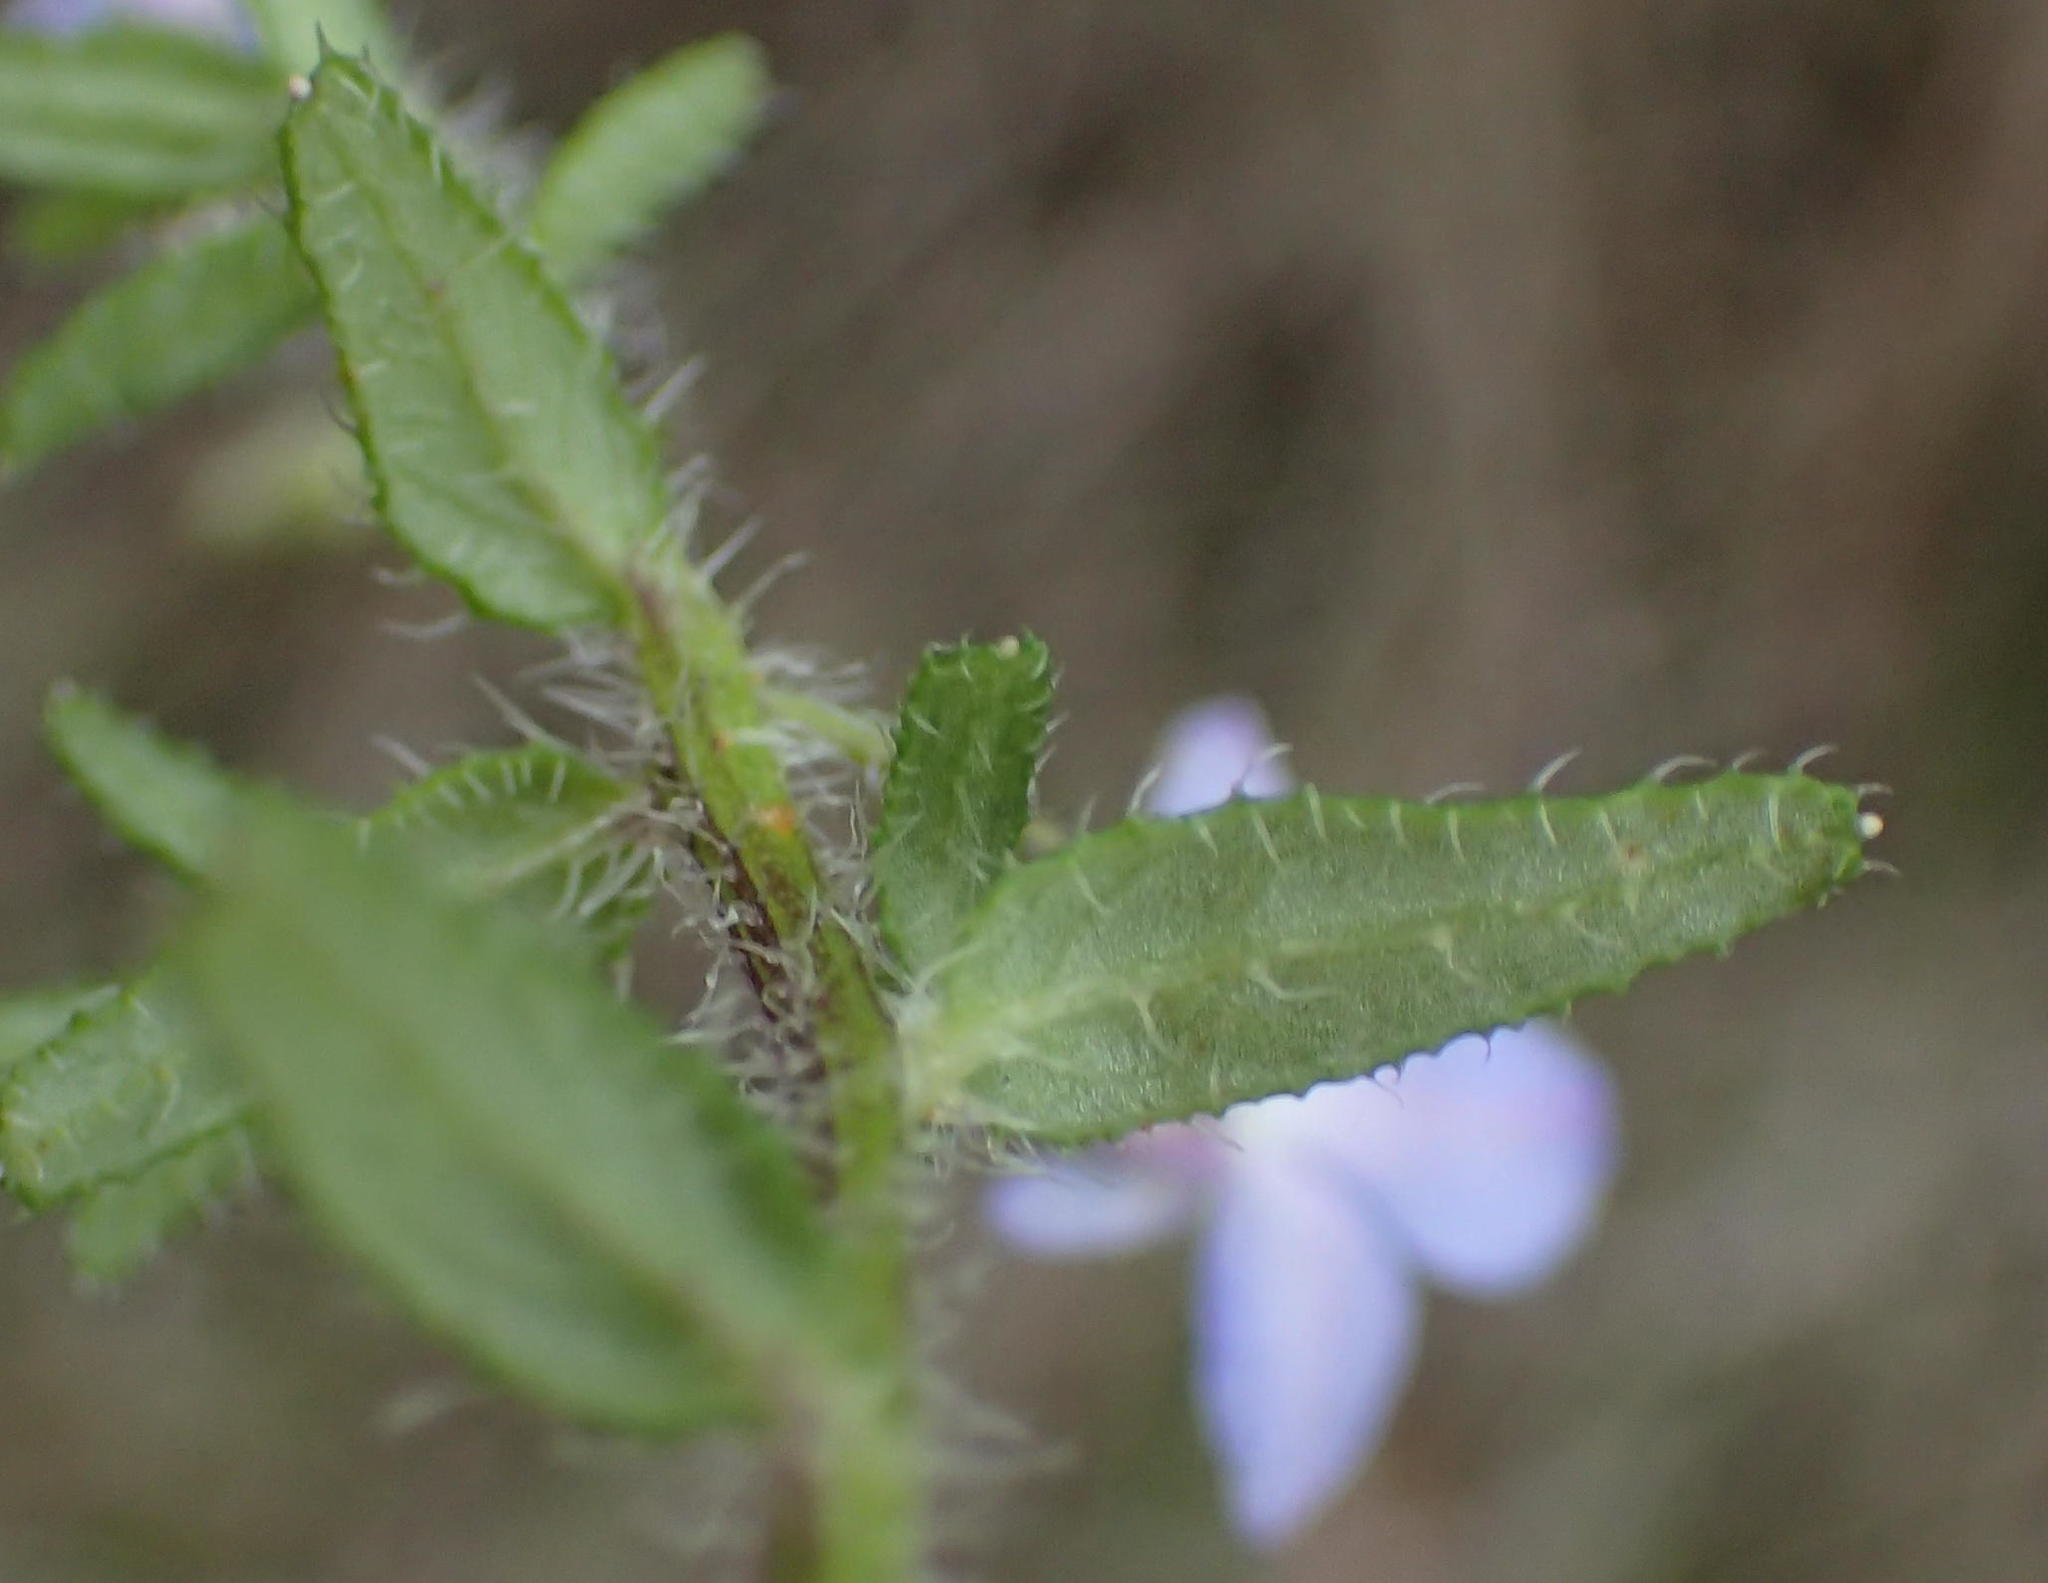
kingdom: Plantae
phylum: Tracheophyta
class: Magnoliopsida
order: Asterales
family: Campanulaceae
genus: Lobelia
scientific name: Lobelia neglecta
